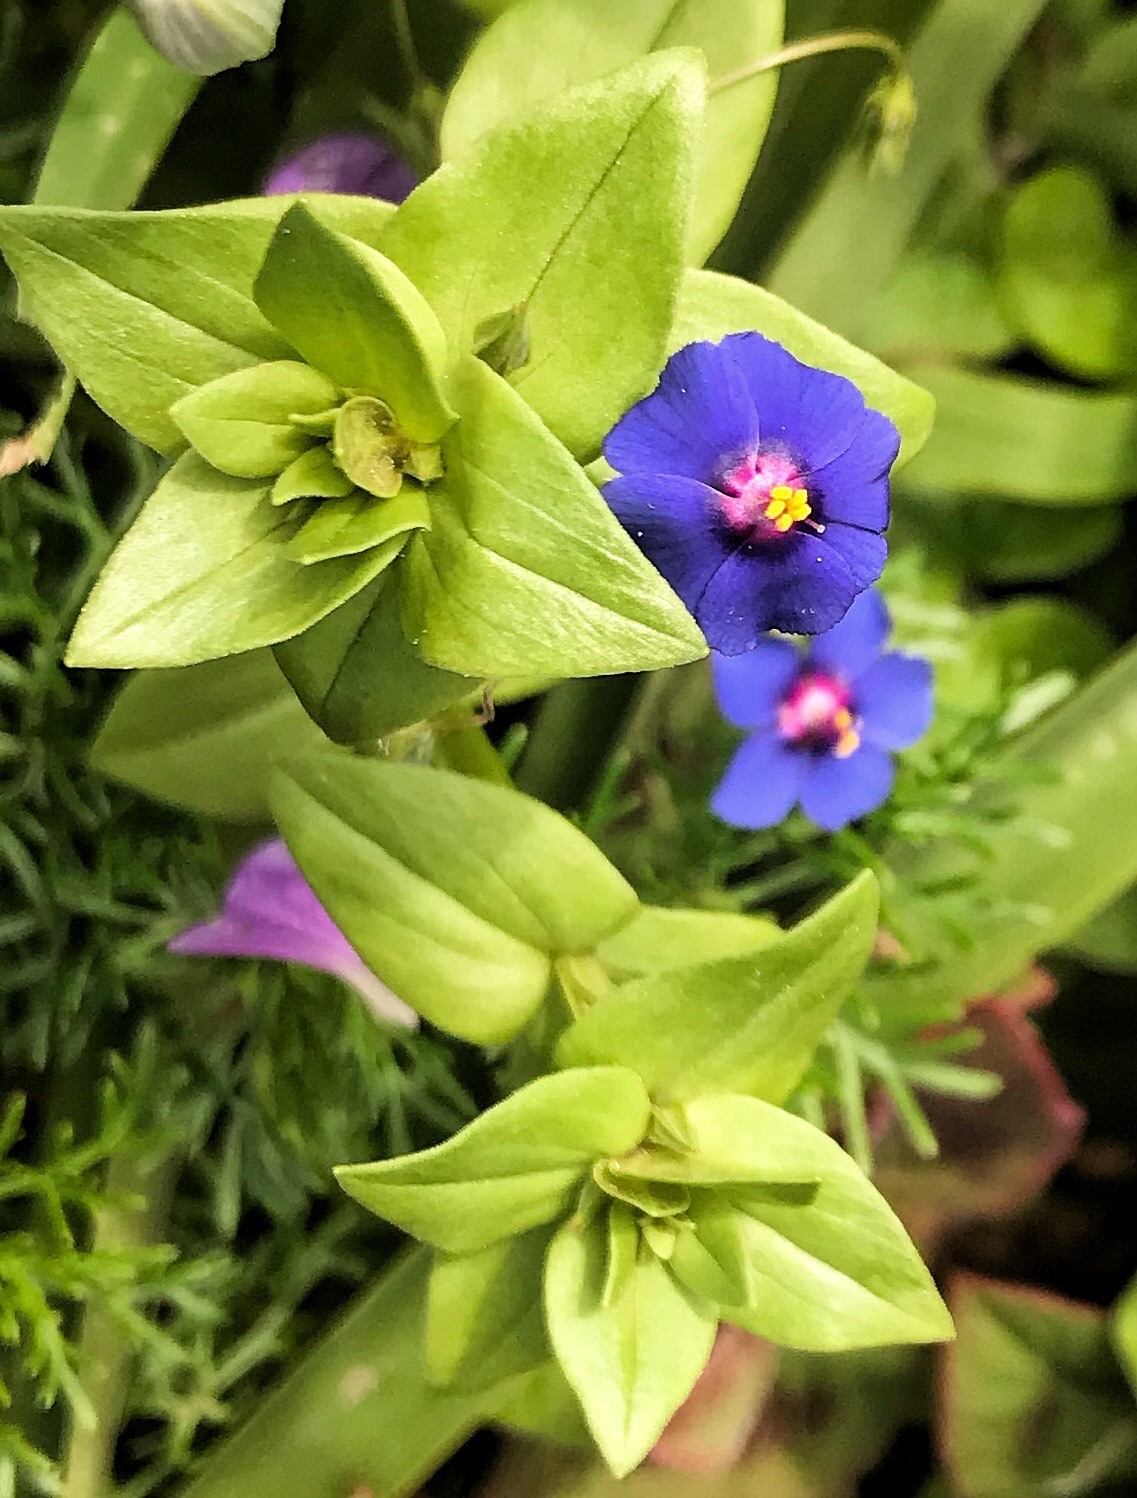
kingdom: Plantae
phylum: Tracheophyta
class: Magnoliopsida
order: Ericales
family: Primulaceae
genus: Lysimachia
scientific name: Lysimachia loeflingii
